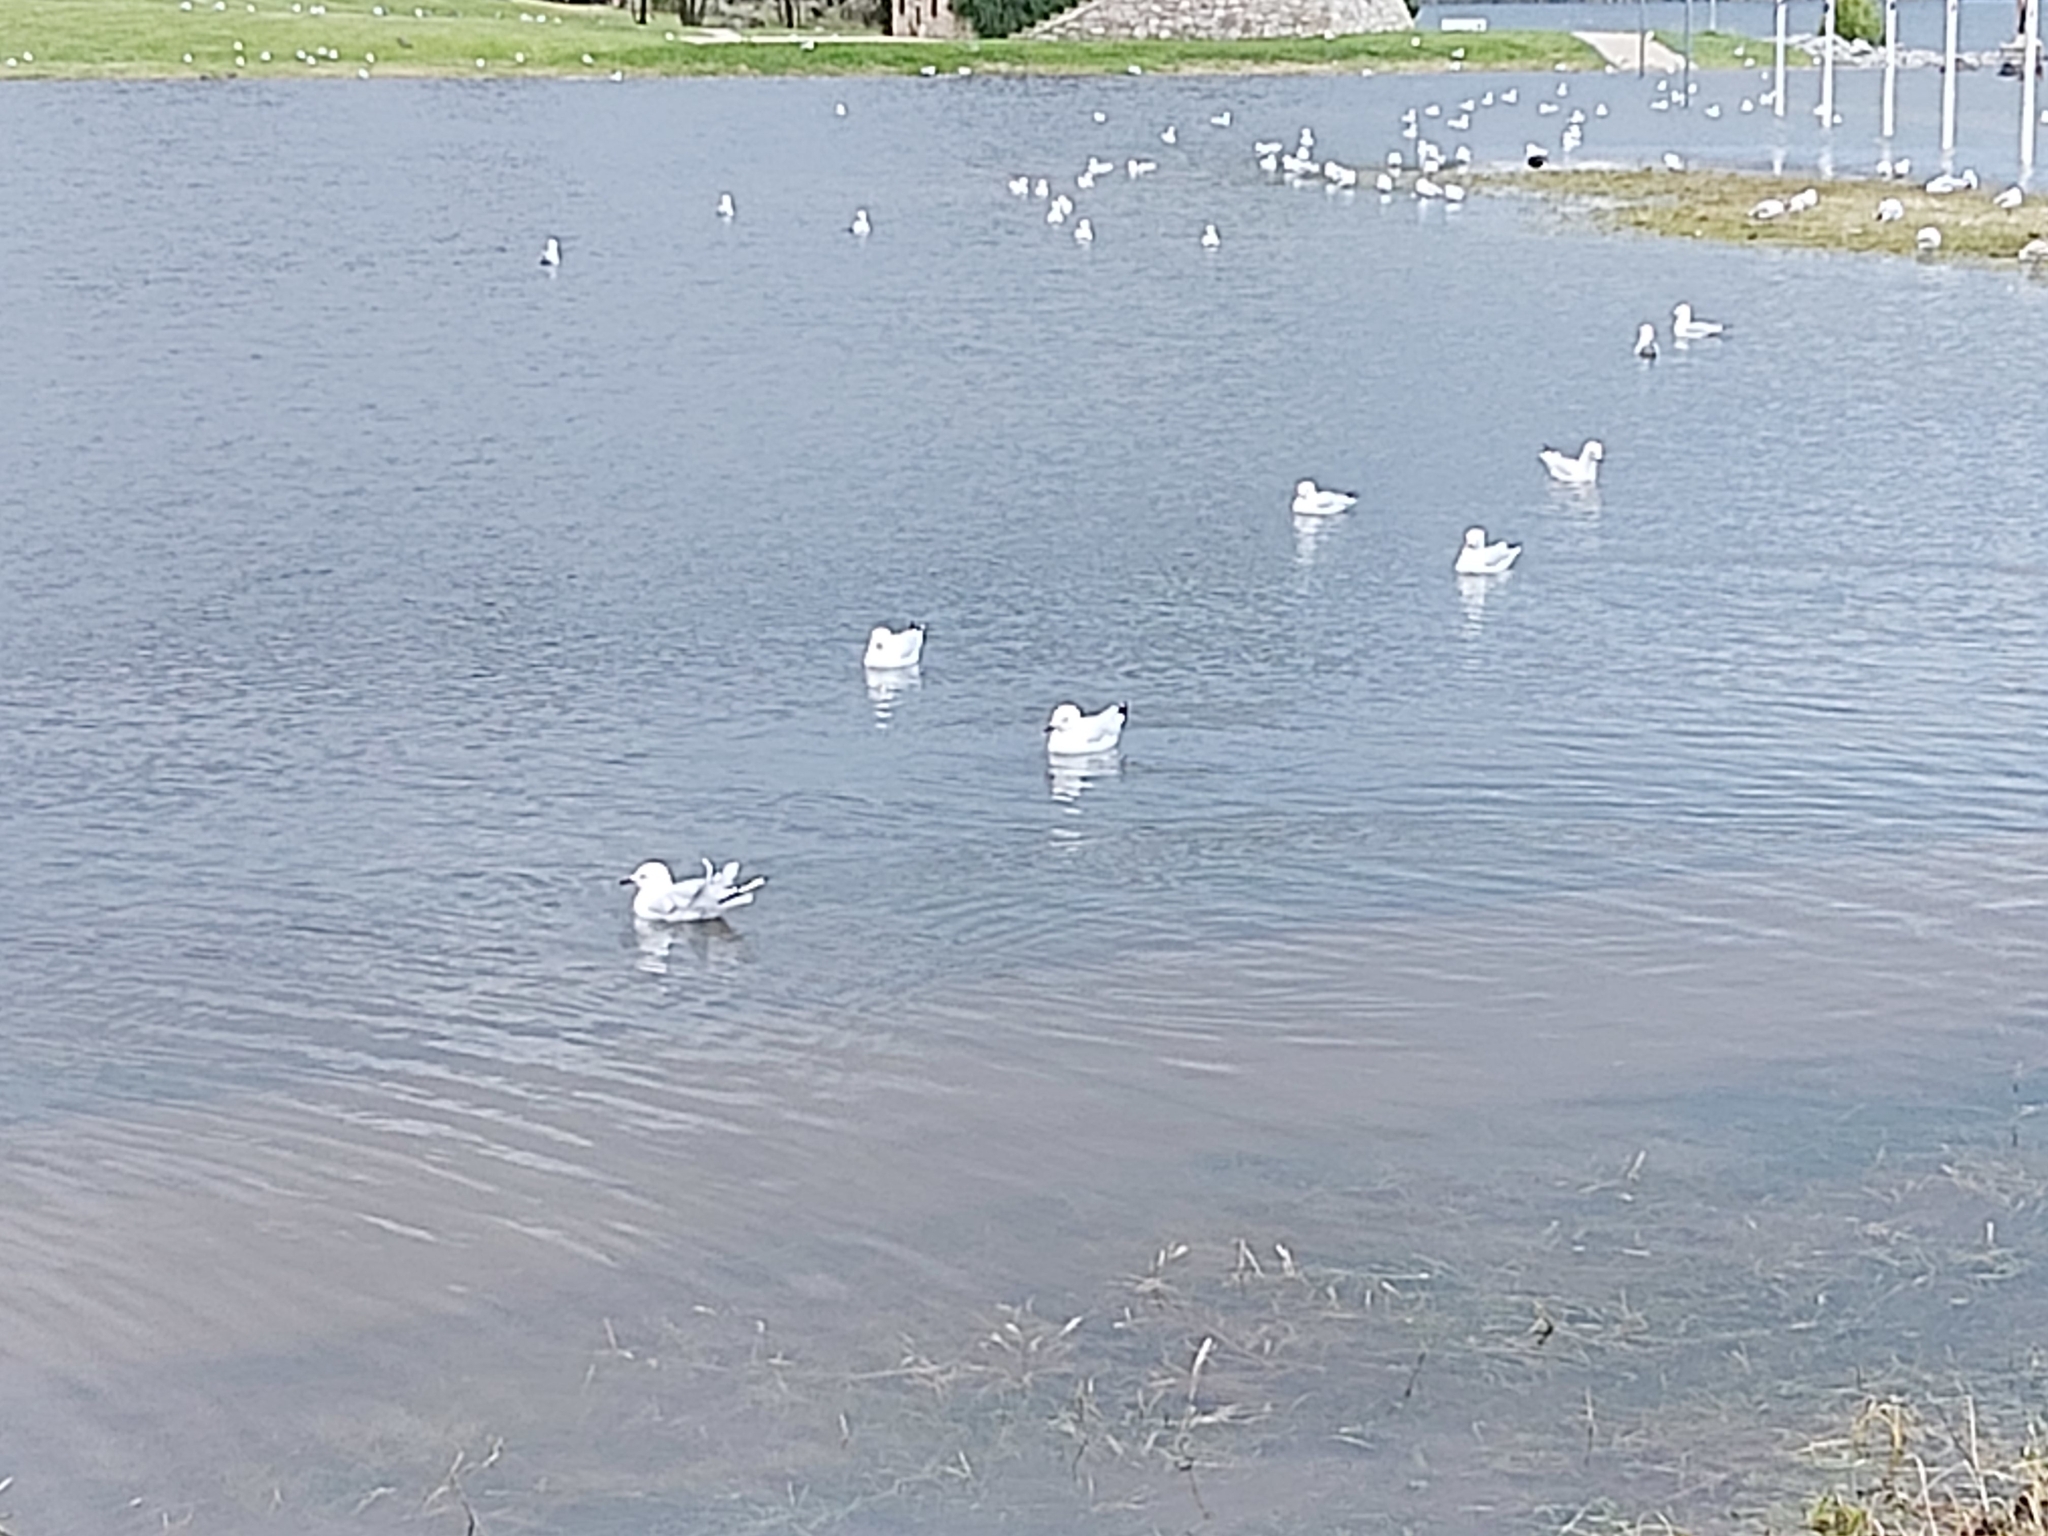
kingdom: Animalia
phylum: Chordata
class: Aves
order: Charadriiformes
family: Laridae
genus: Chroicocephalus
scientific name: Chroicocephalus novaehollandiae
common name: Silver gull
